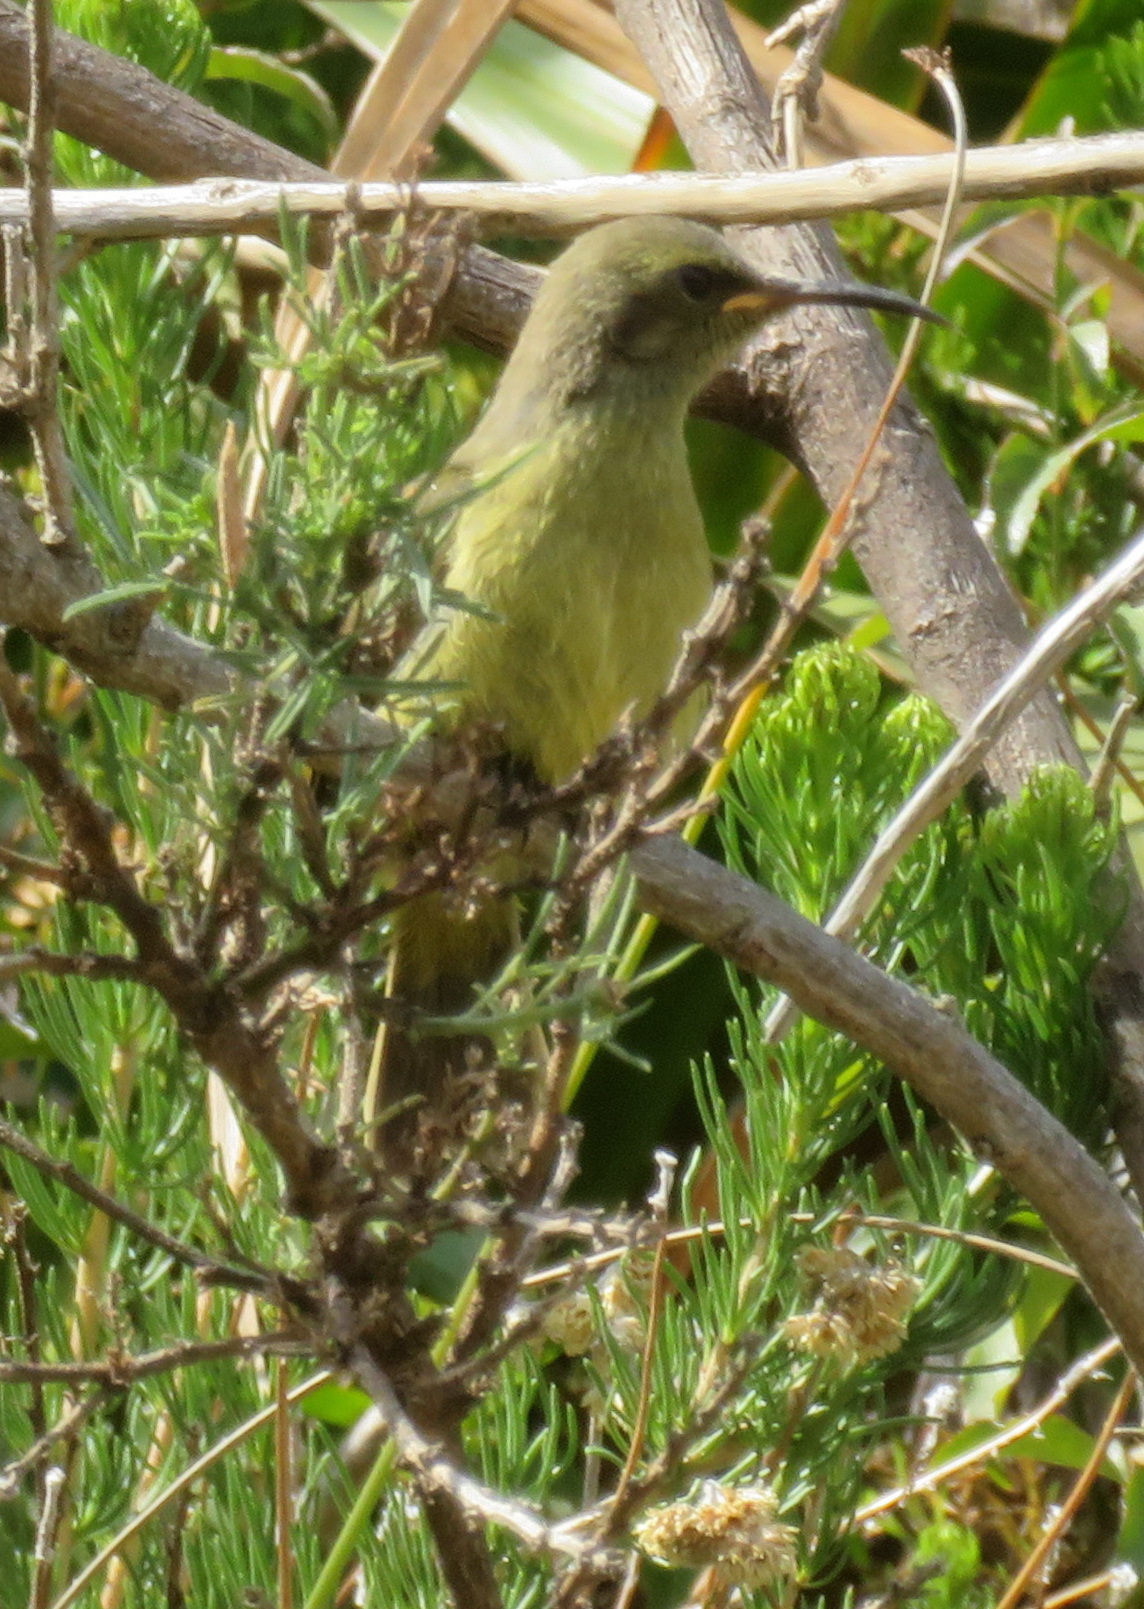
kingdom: Animalia
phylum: Chordata
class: Aves
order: Passeriformes
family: Nectariniidae
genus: Anthobaphes
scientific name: Anthobaphes violacea
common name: Orange-breasted sunbird
